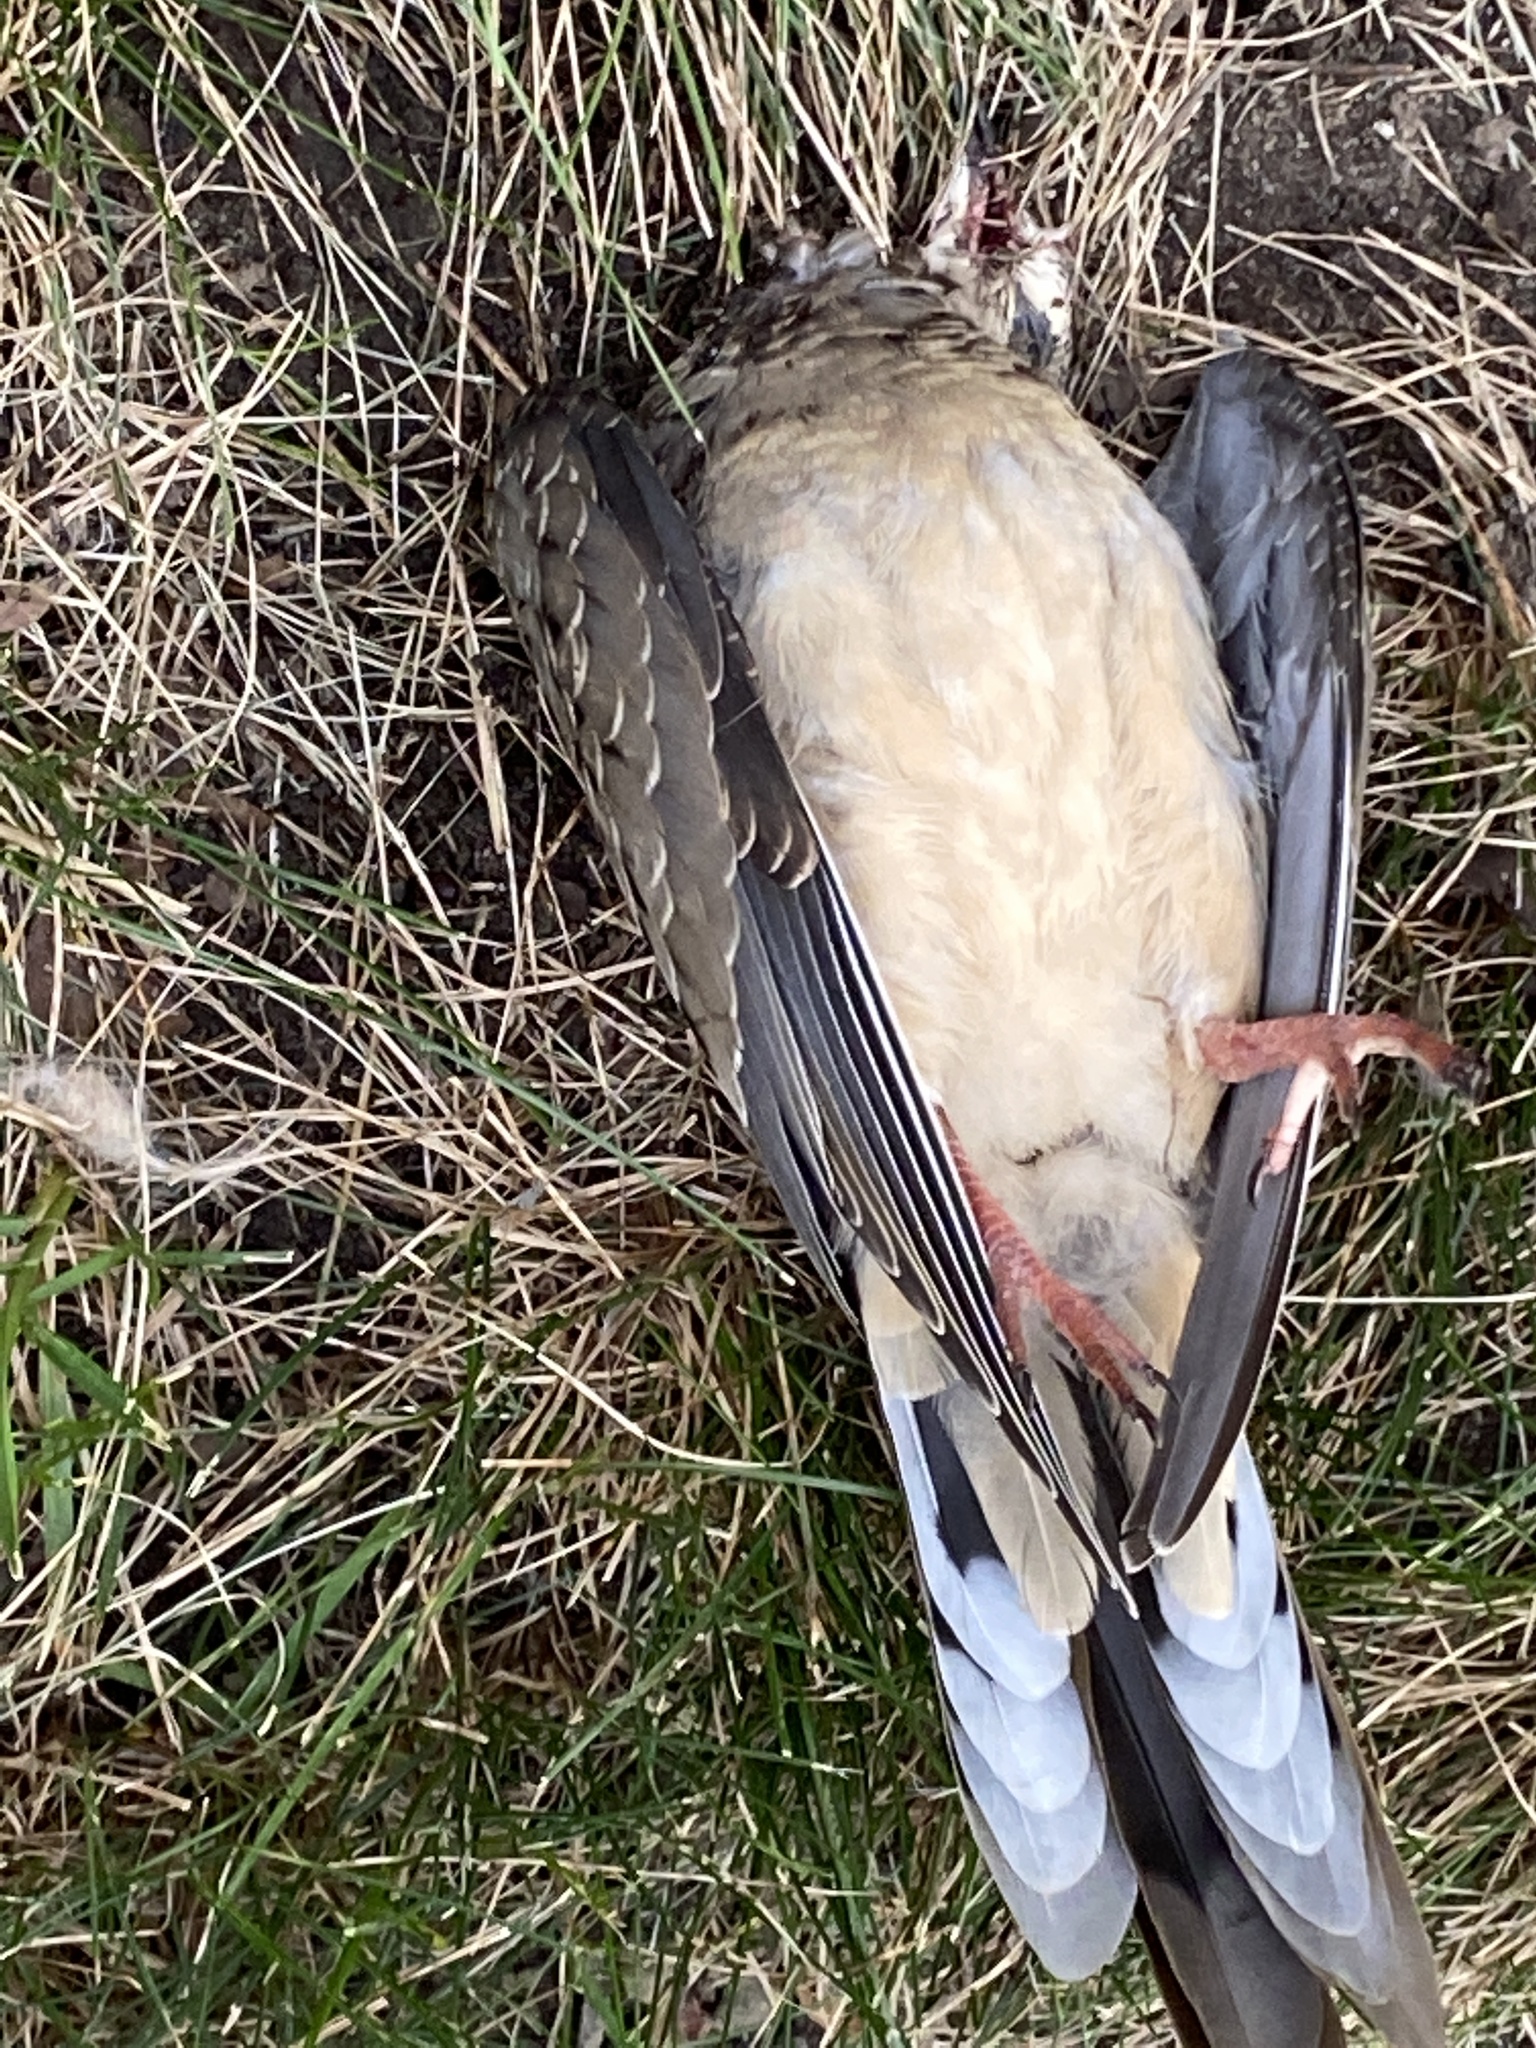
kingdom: Animalia
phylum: Chordata
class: Aves
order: Columbiformes
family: Columbidae
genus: Zenaida
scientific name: Zenaida macroura
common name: Mourning dove
